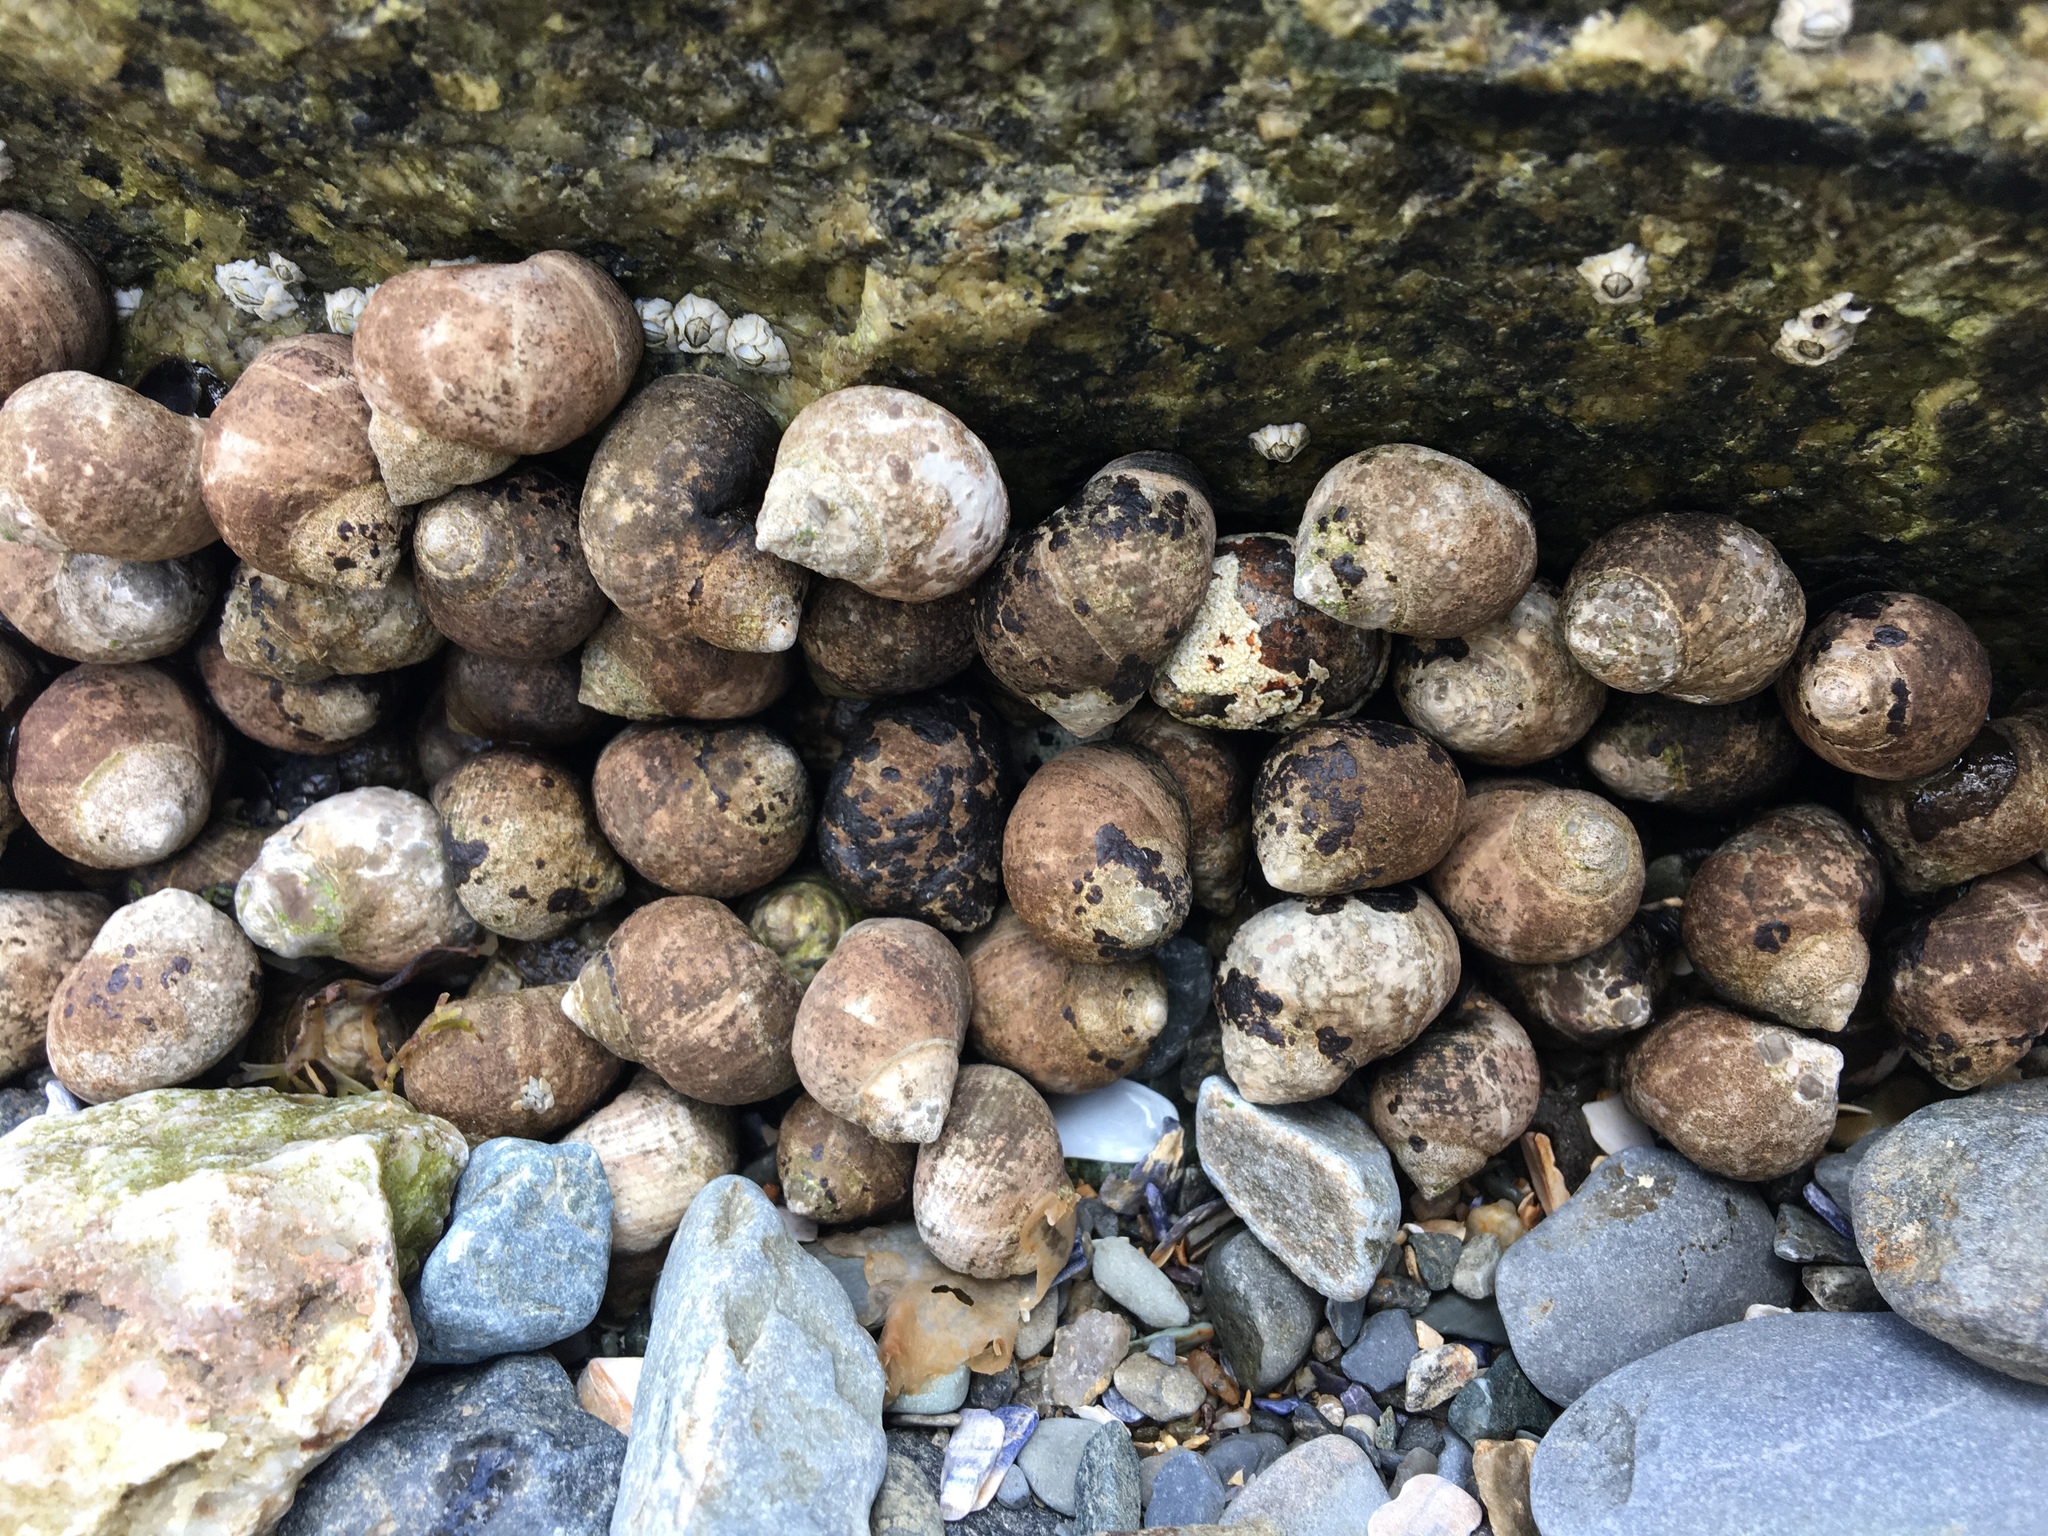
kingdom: Animalia
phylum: Mollusca
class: Gastropoda
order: Littorinimorpha
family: Littorinidae
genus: Littorina
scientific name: Littorina littorea
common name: Common periwinkle
